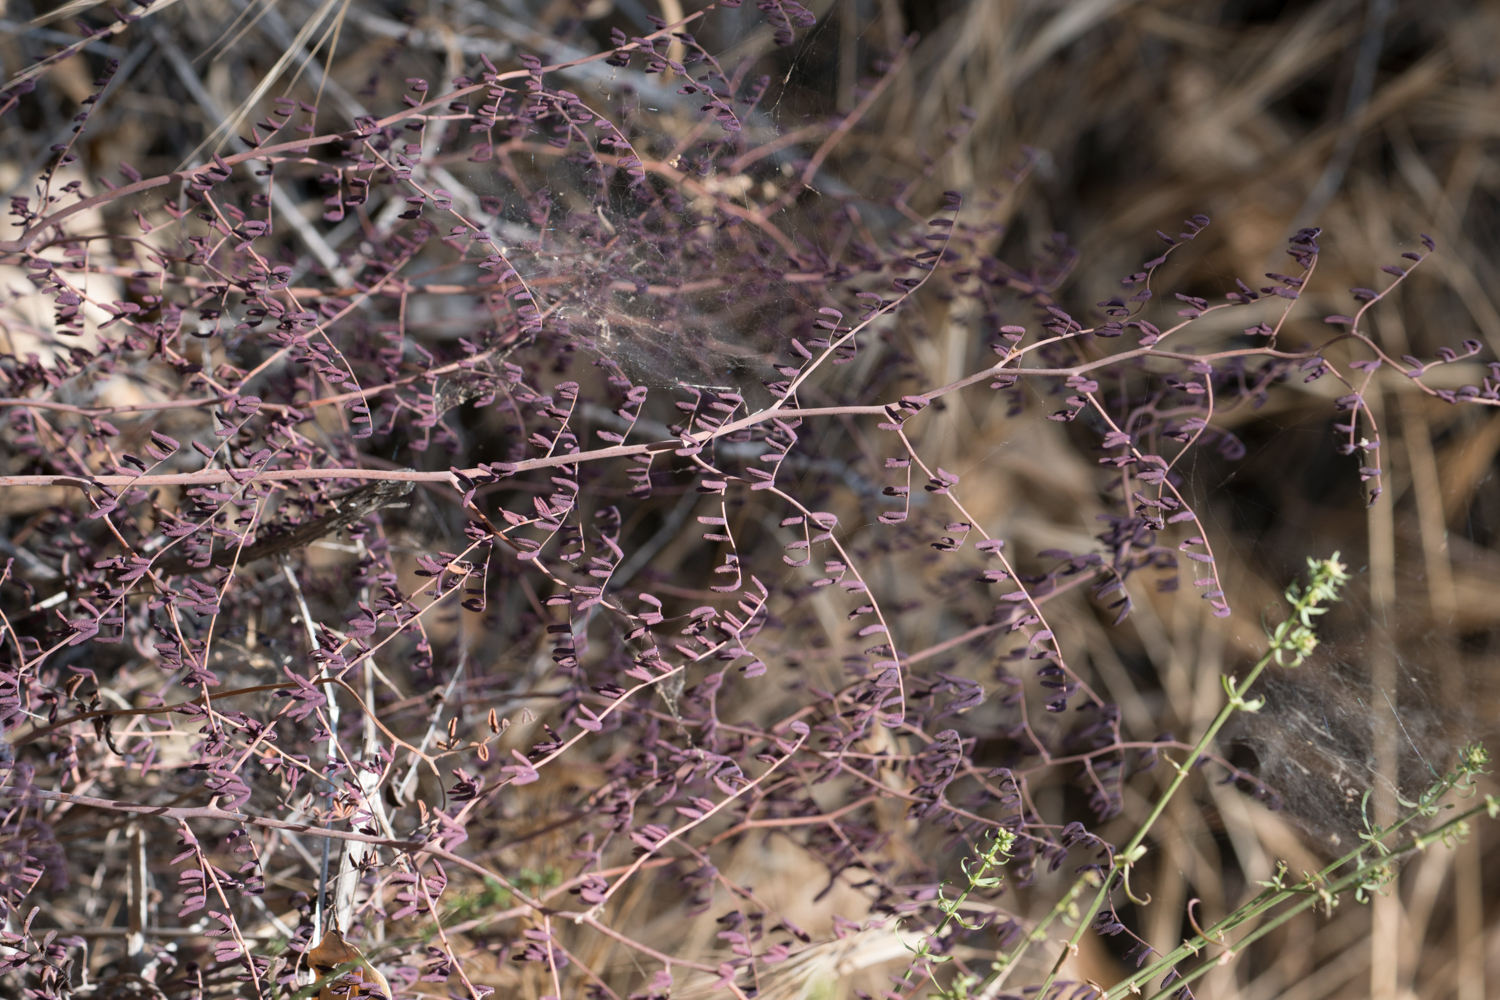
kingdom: Plantae
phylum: Tracheophyta
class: Polypodiopsida
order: Polypodiales
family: Pteridaceae
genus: Pellaea
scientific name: Pellaea andromedifolia
